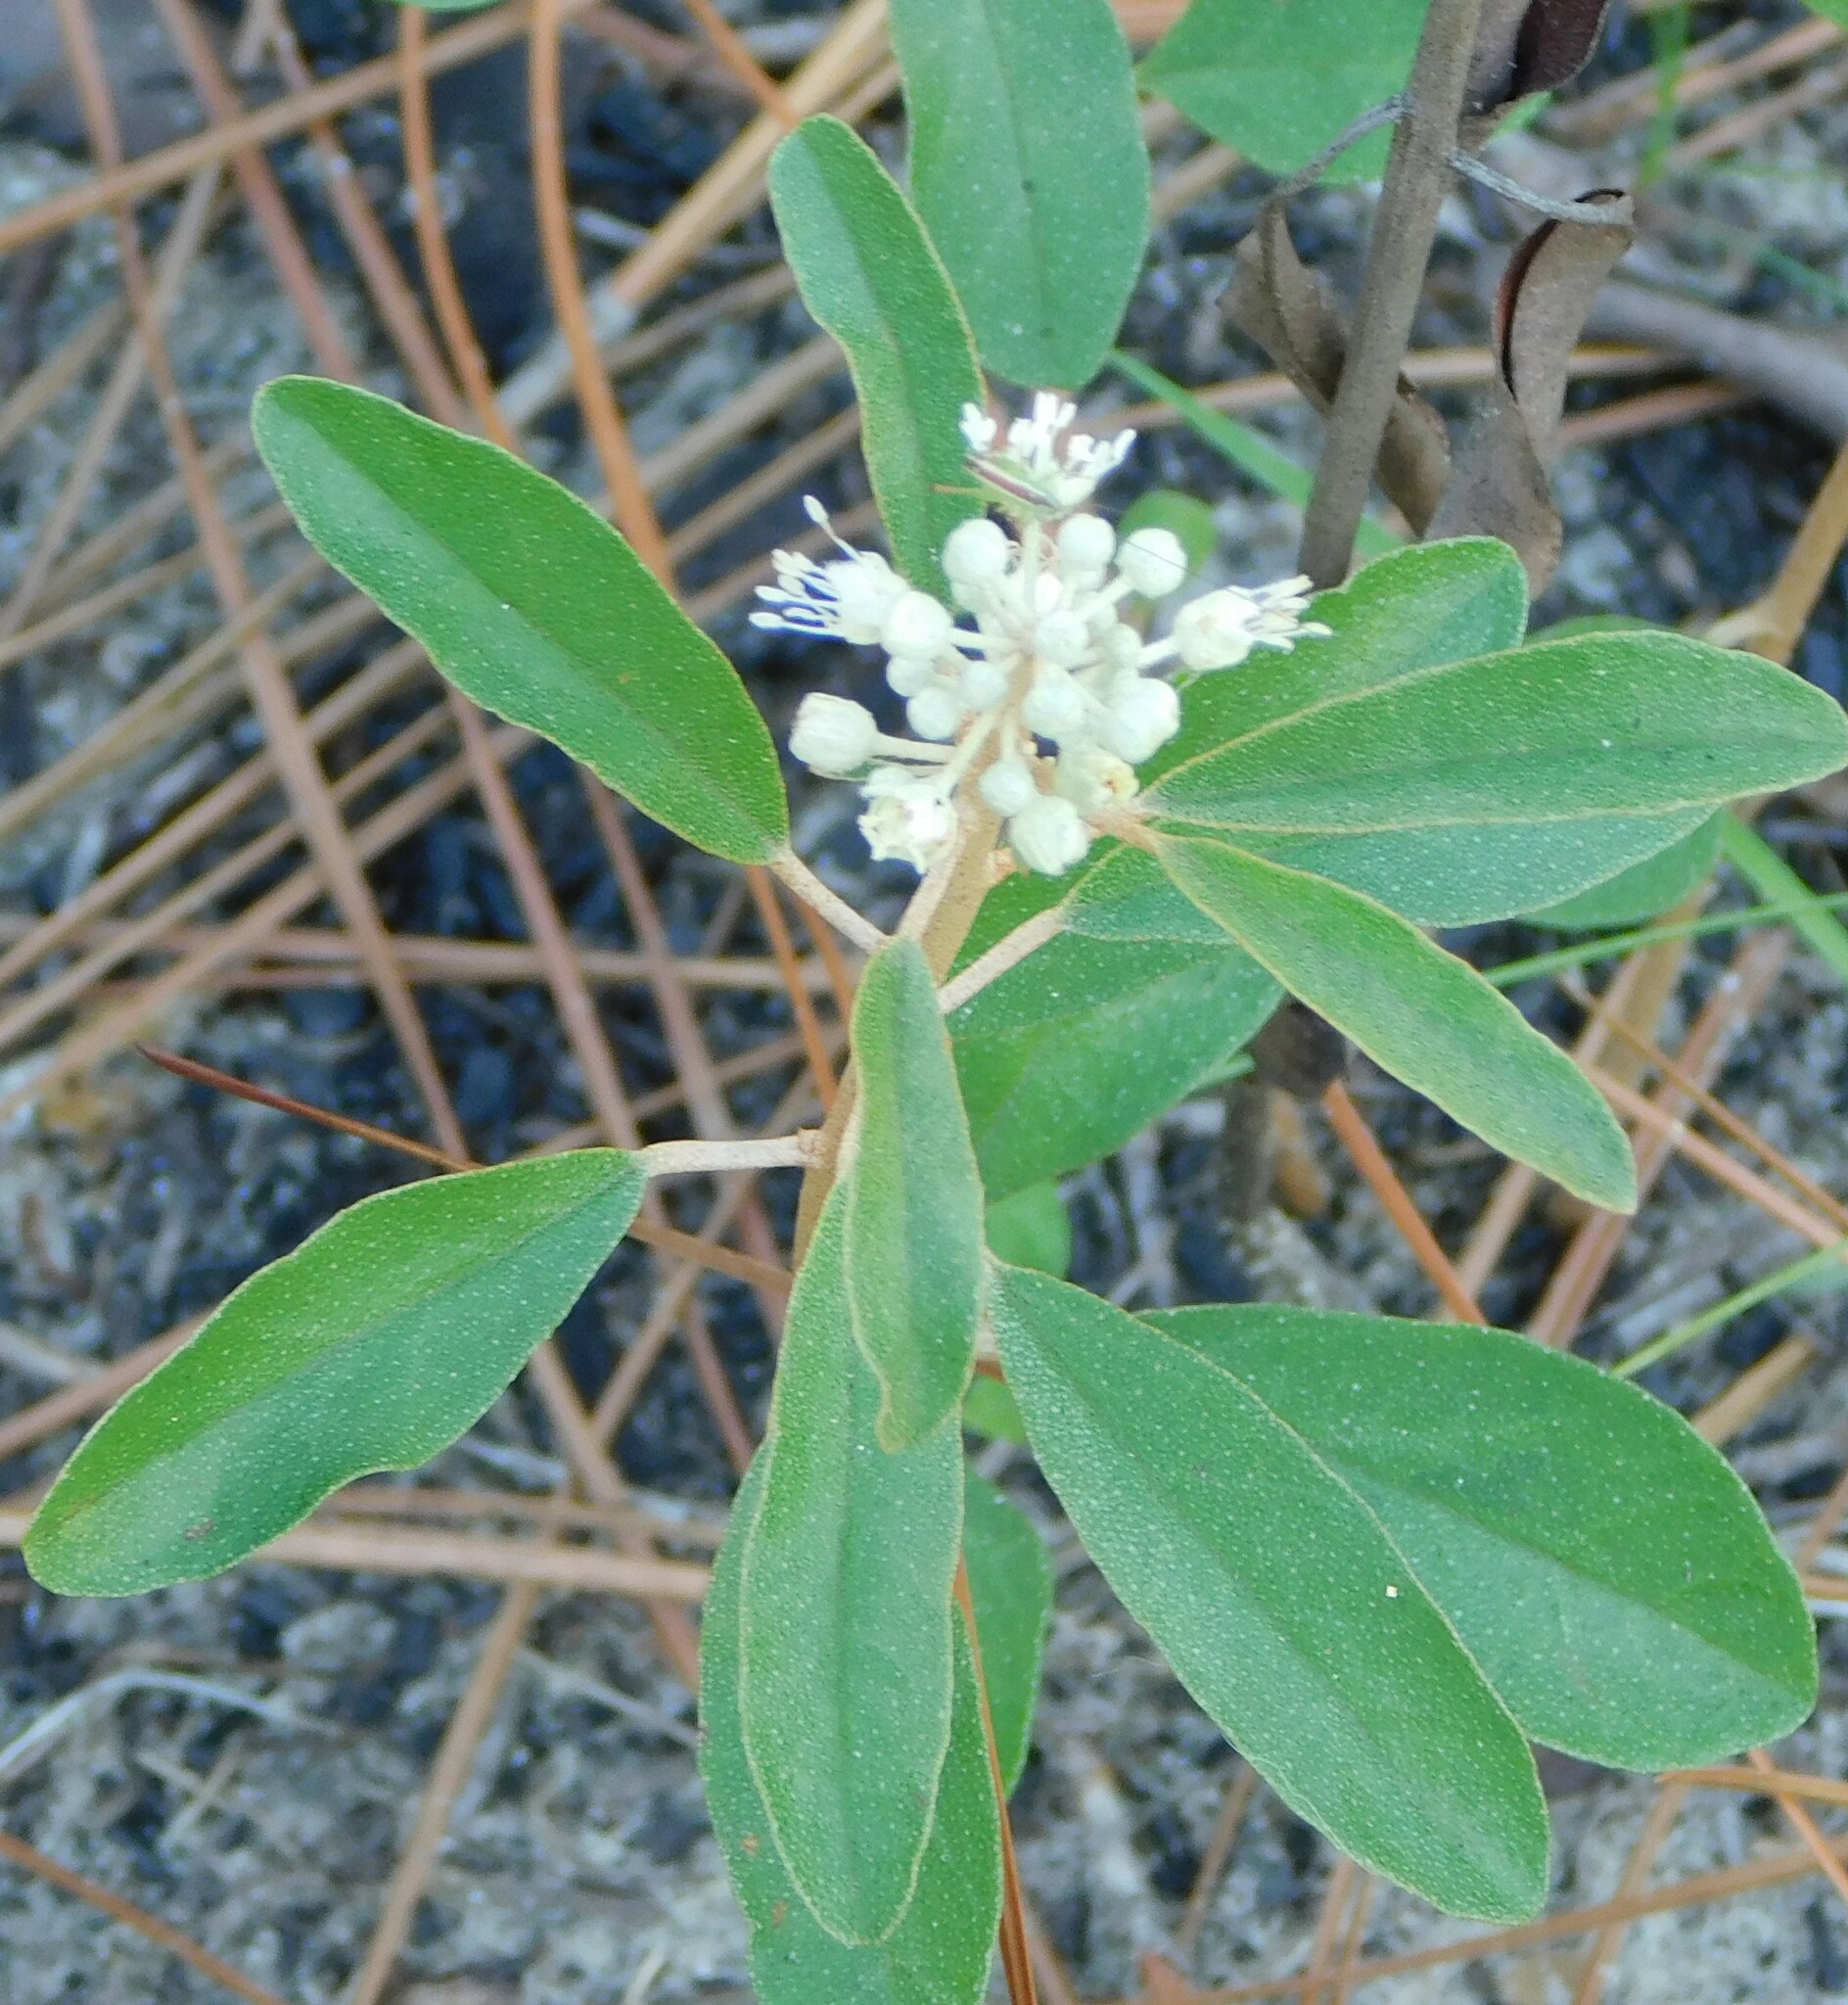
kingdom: Plantae
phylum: Tracheophyta
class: Magnoliopsida
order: Malpighiales
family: Euphorbiaceae
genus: Croton
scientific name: Croton argyranthemus
